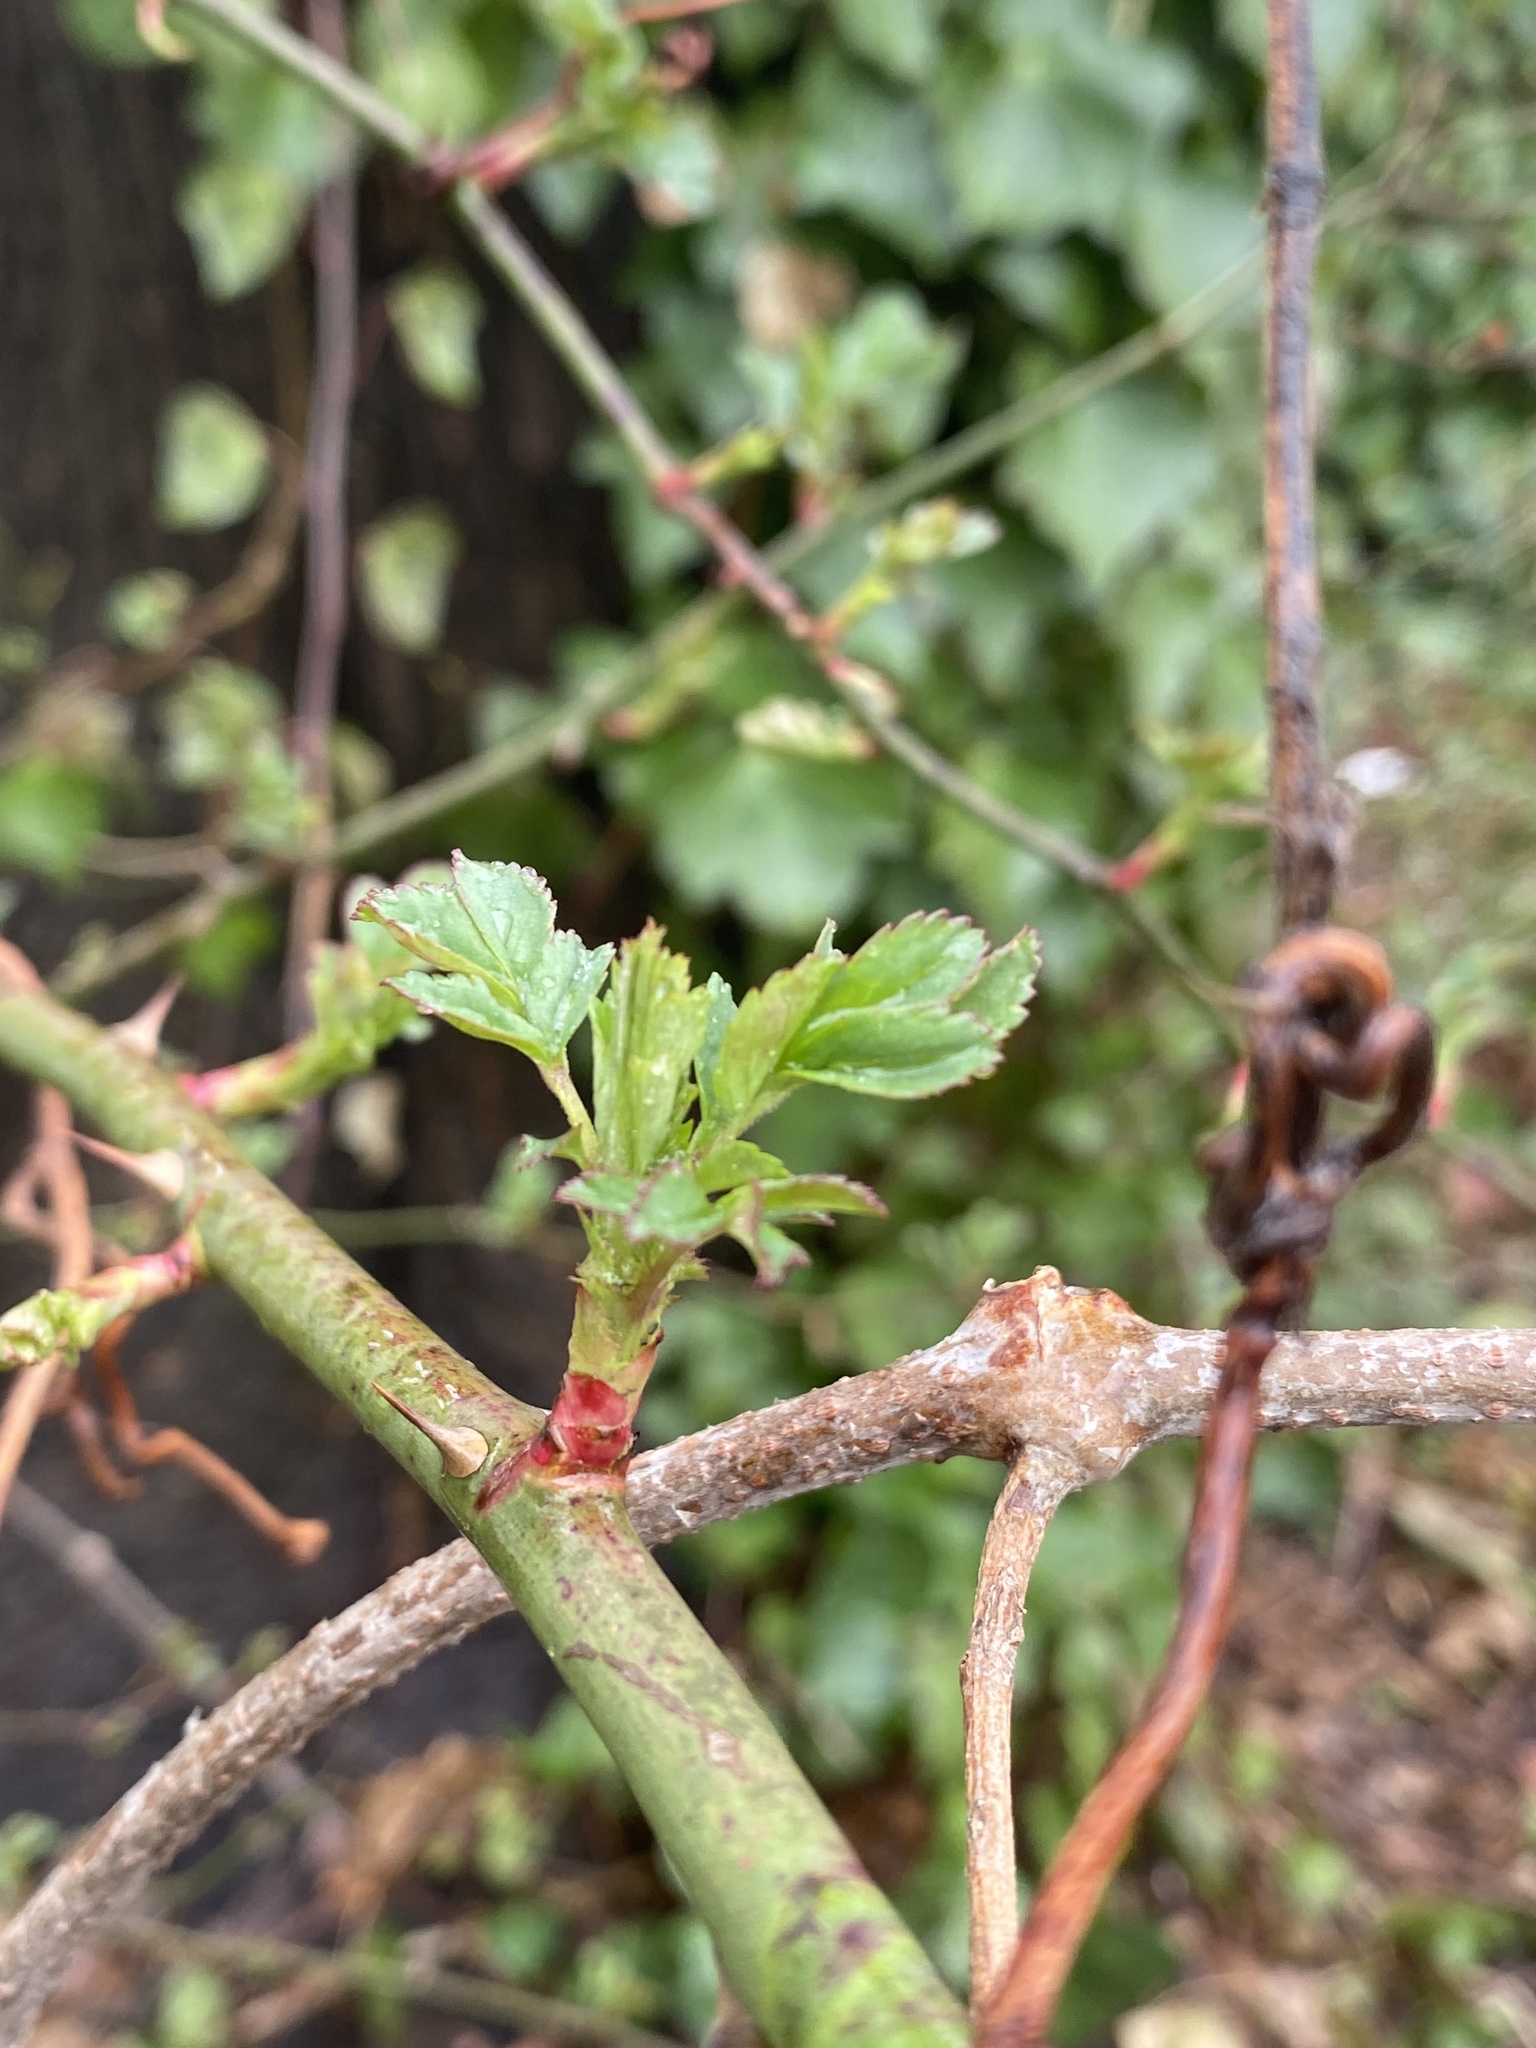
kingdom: Plantae
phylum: Tracheophyta
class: Magnoliopsida
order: Rosales
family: Rosaceae
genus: Rosa
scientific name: Rosa multiflora
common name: Multiflora rose
